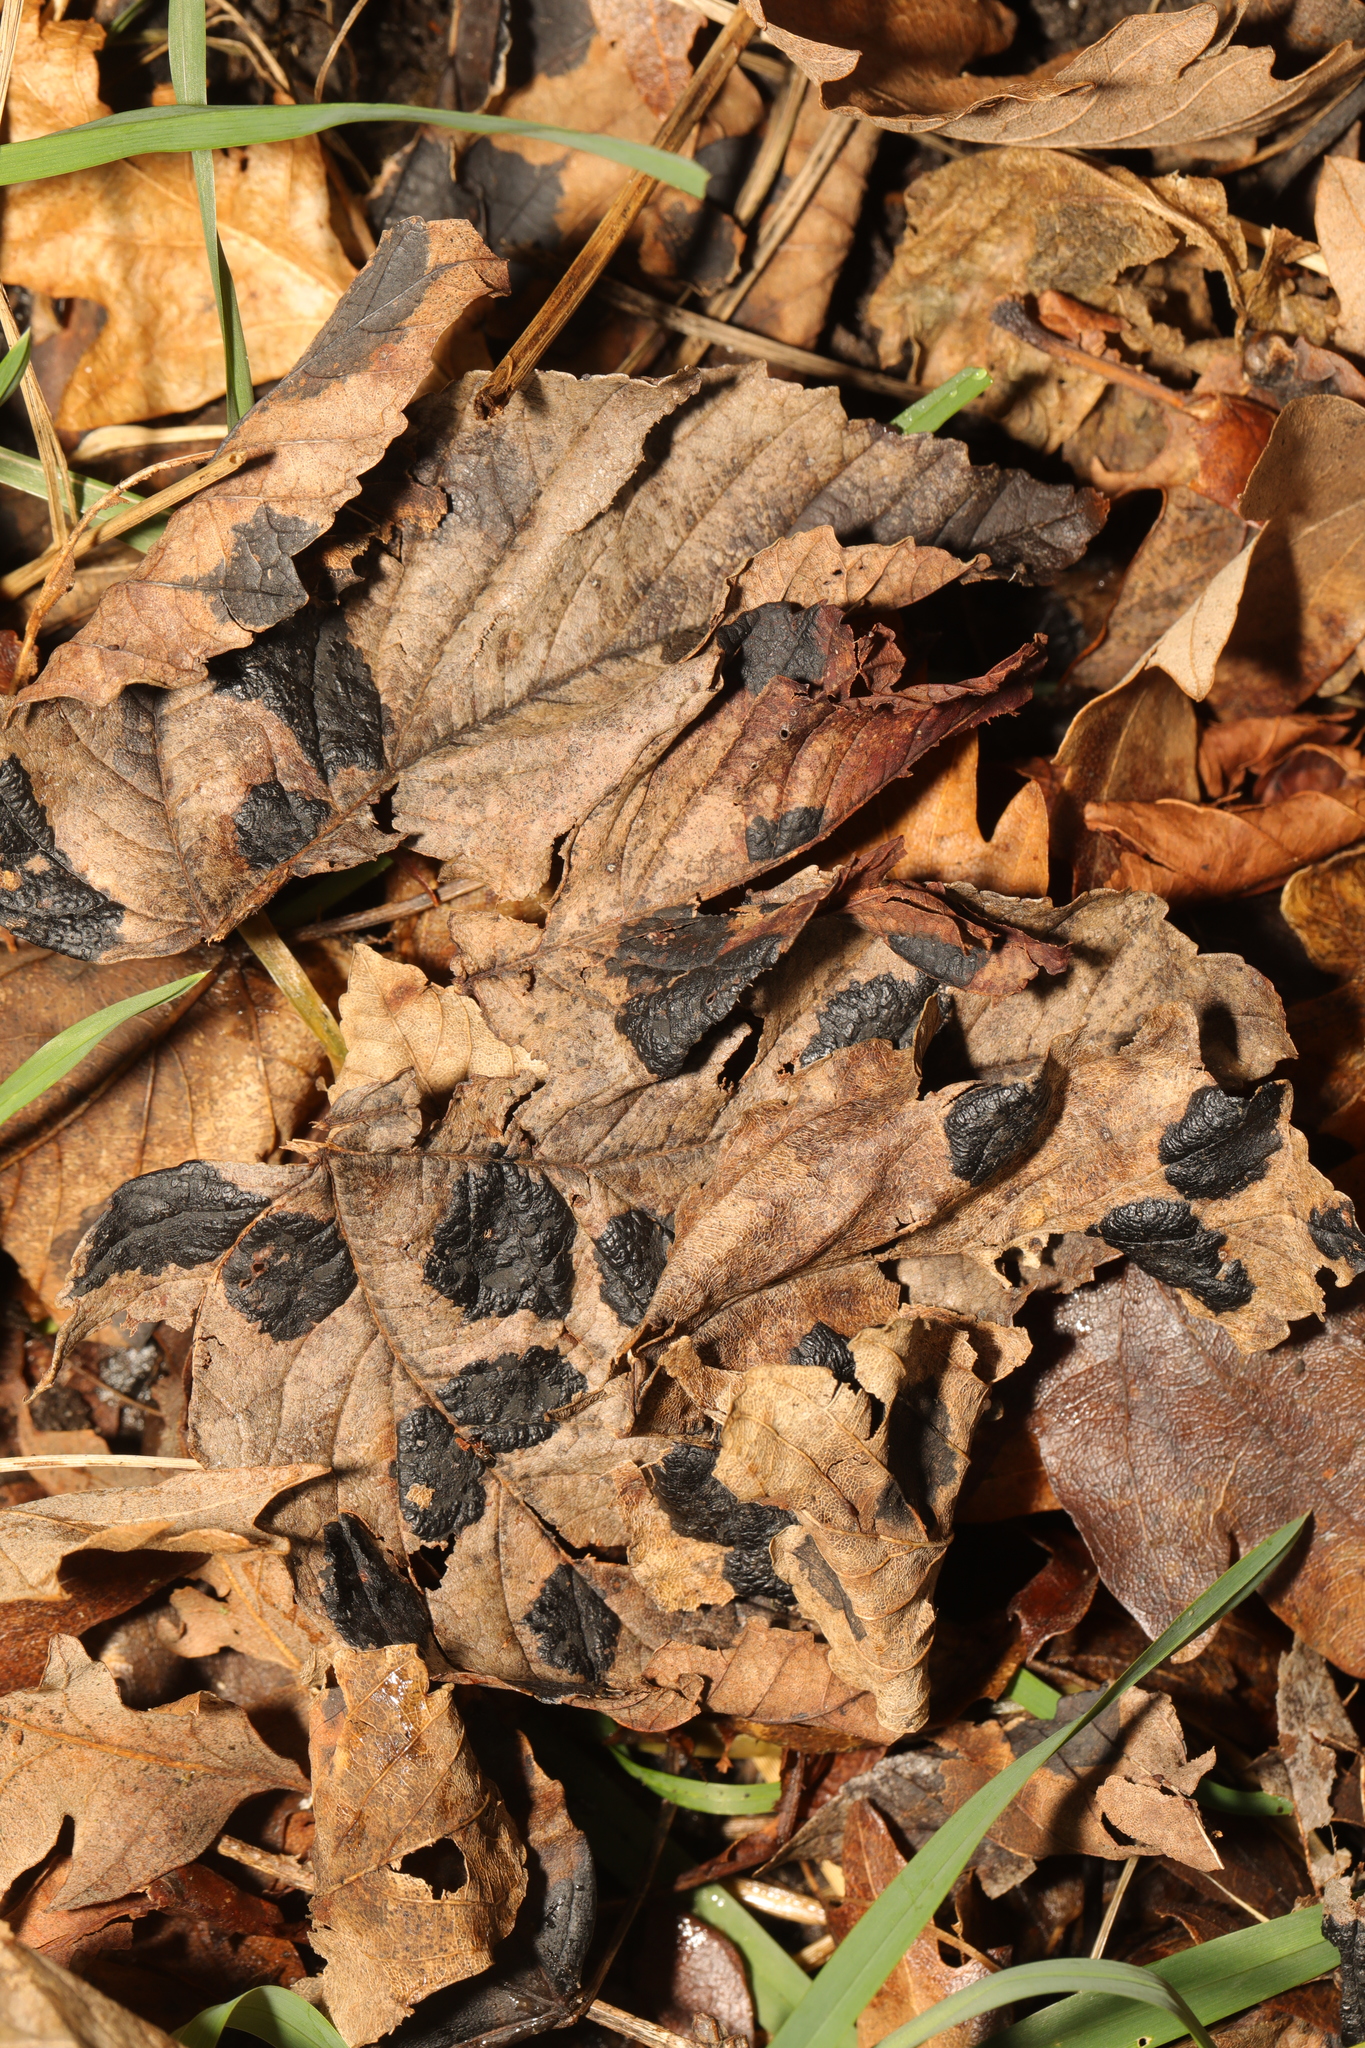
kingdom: Fungi
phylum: Ascomycota
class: Leotiomycetes
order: Rhytismatales
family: Rhytismataceae
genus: Rhytisma
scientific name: Rhytisma acerinum
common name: European tar spot
